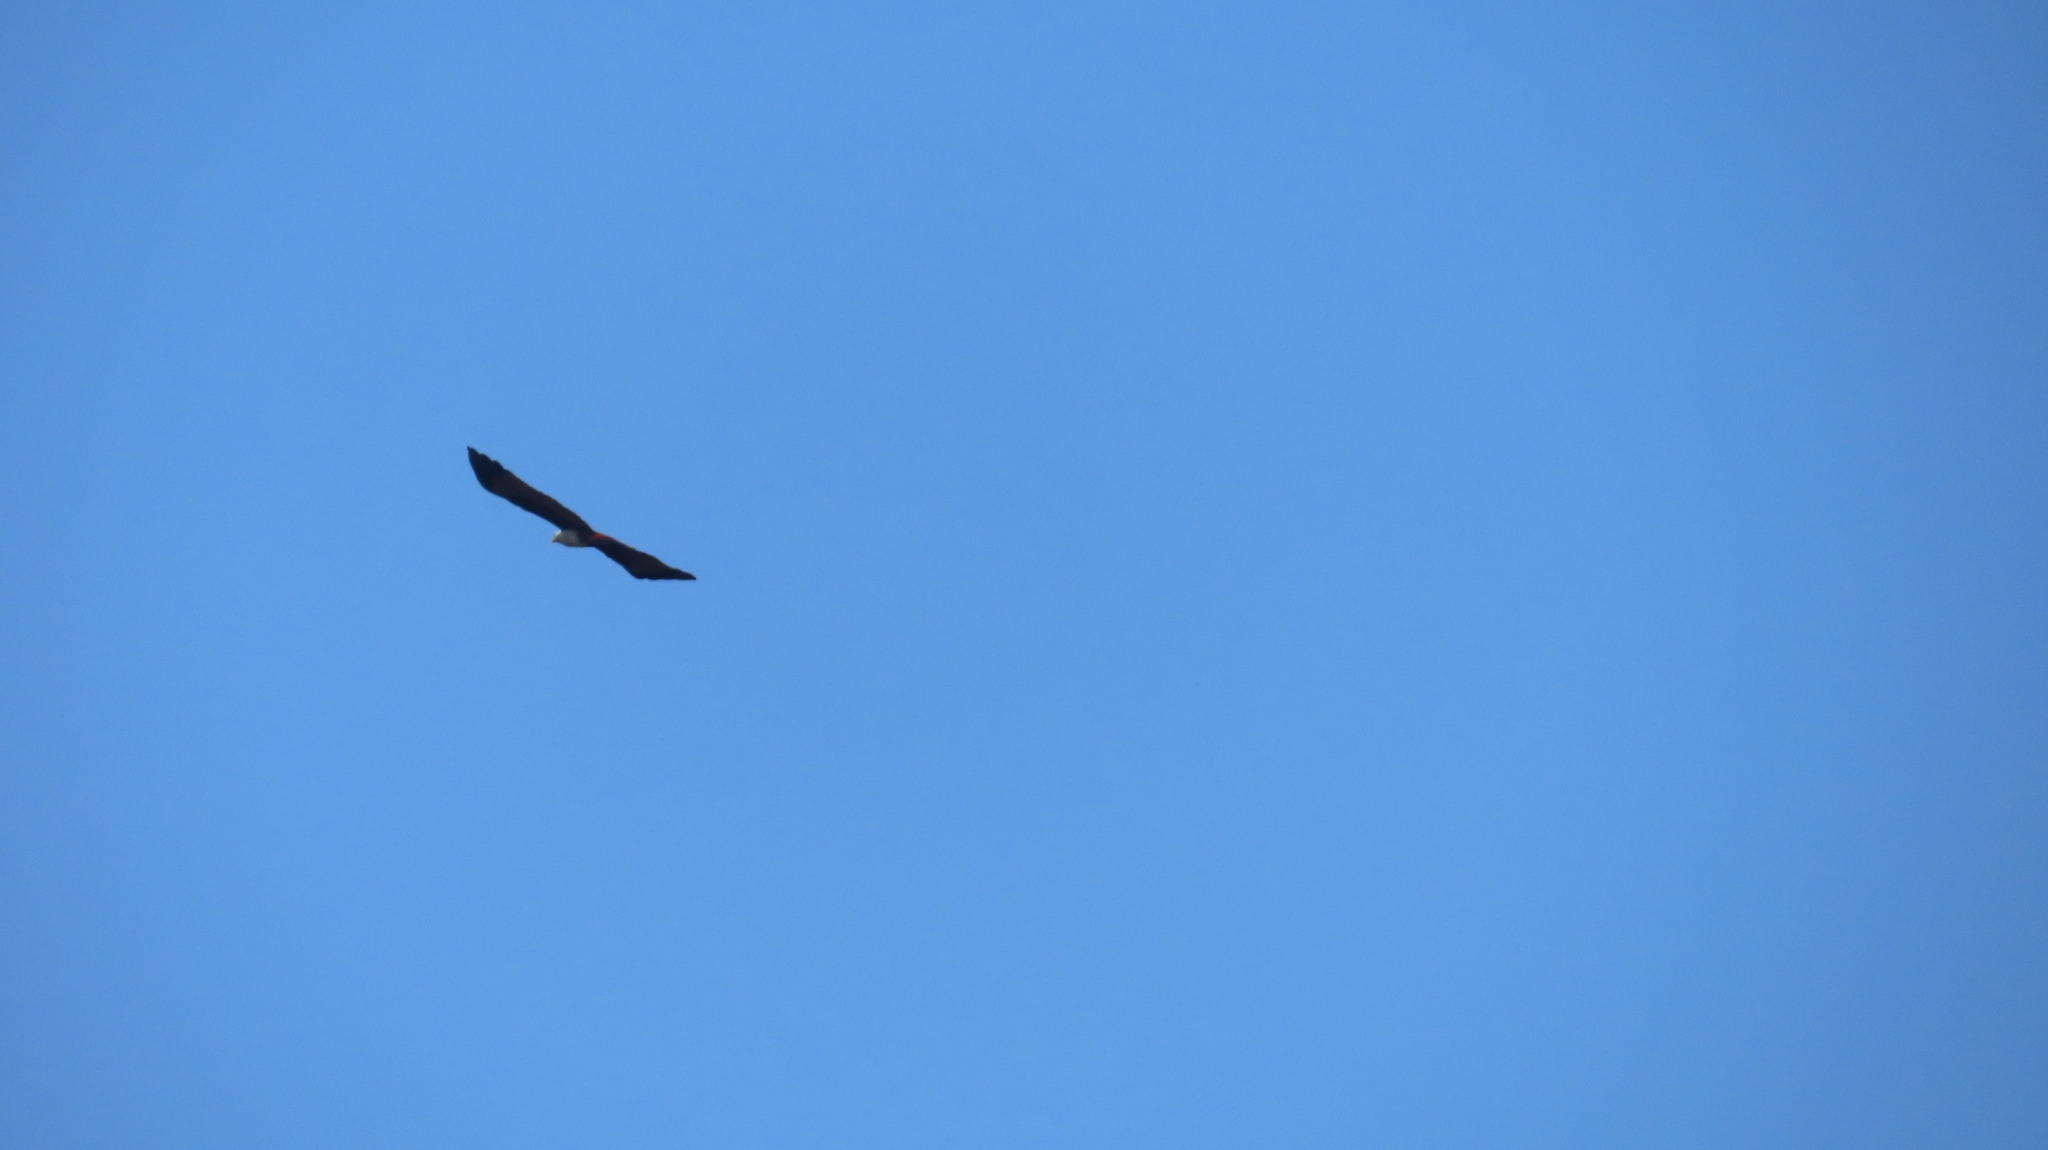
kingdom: Animalia
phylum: Chordata
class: Aves
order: Accipitriformes
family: Accipitridae
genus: Haliastur
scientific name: Haliastur indus
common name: Brahminy kite
